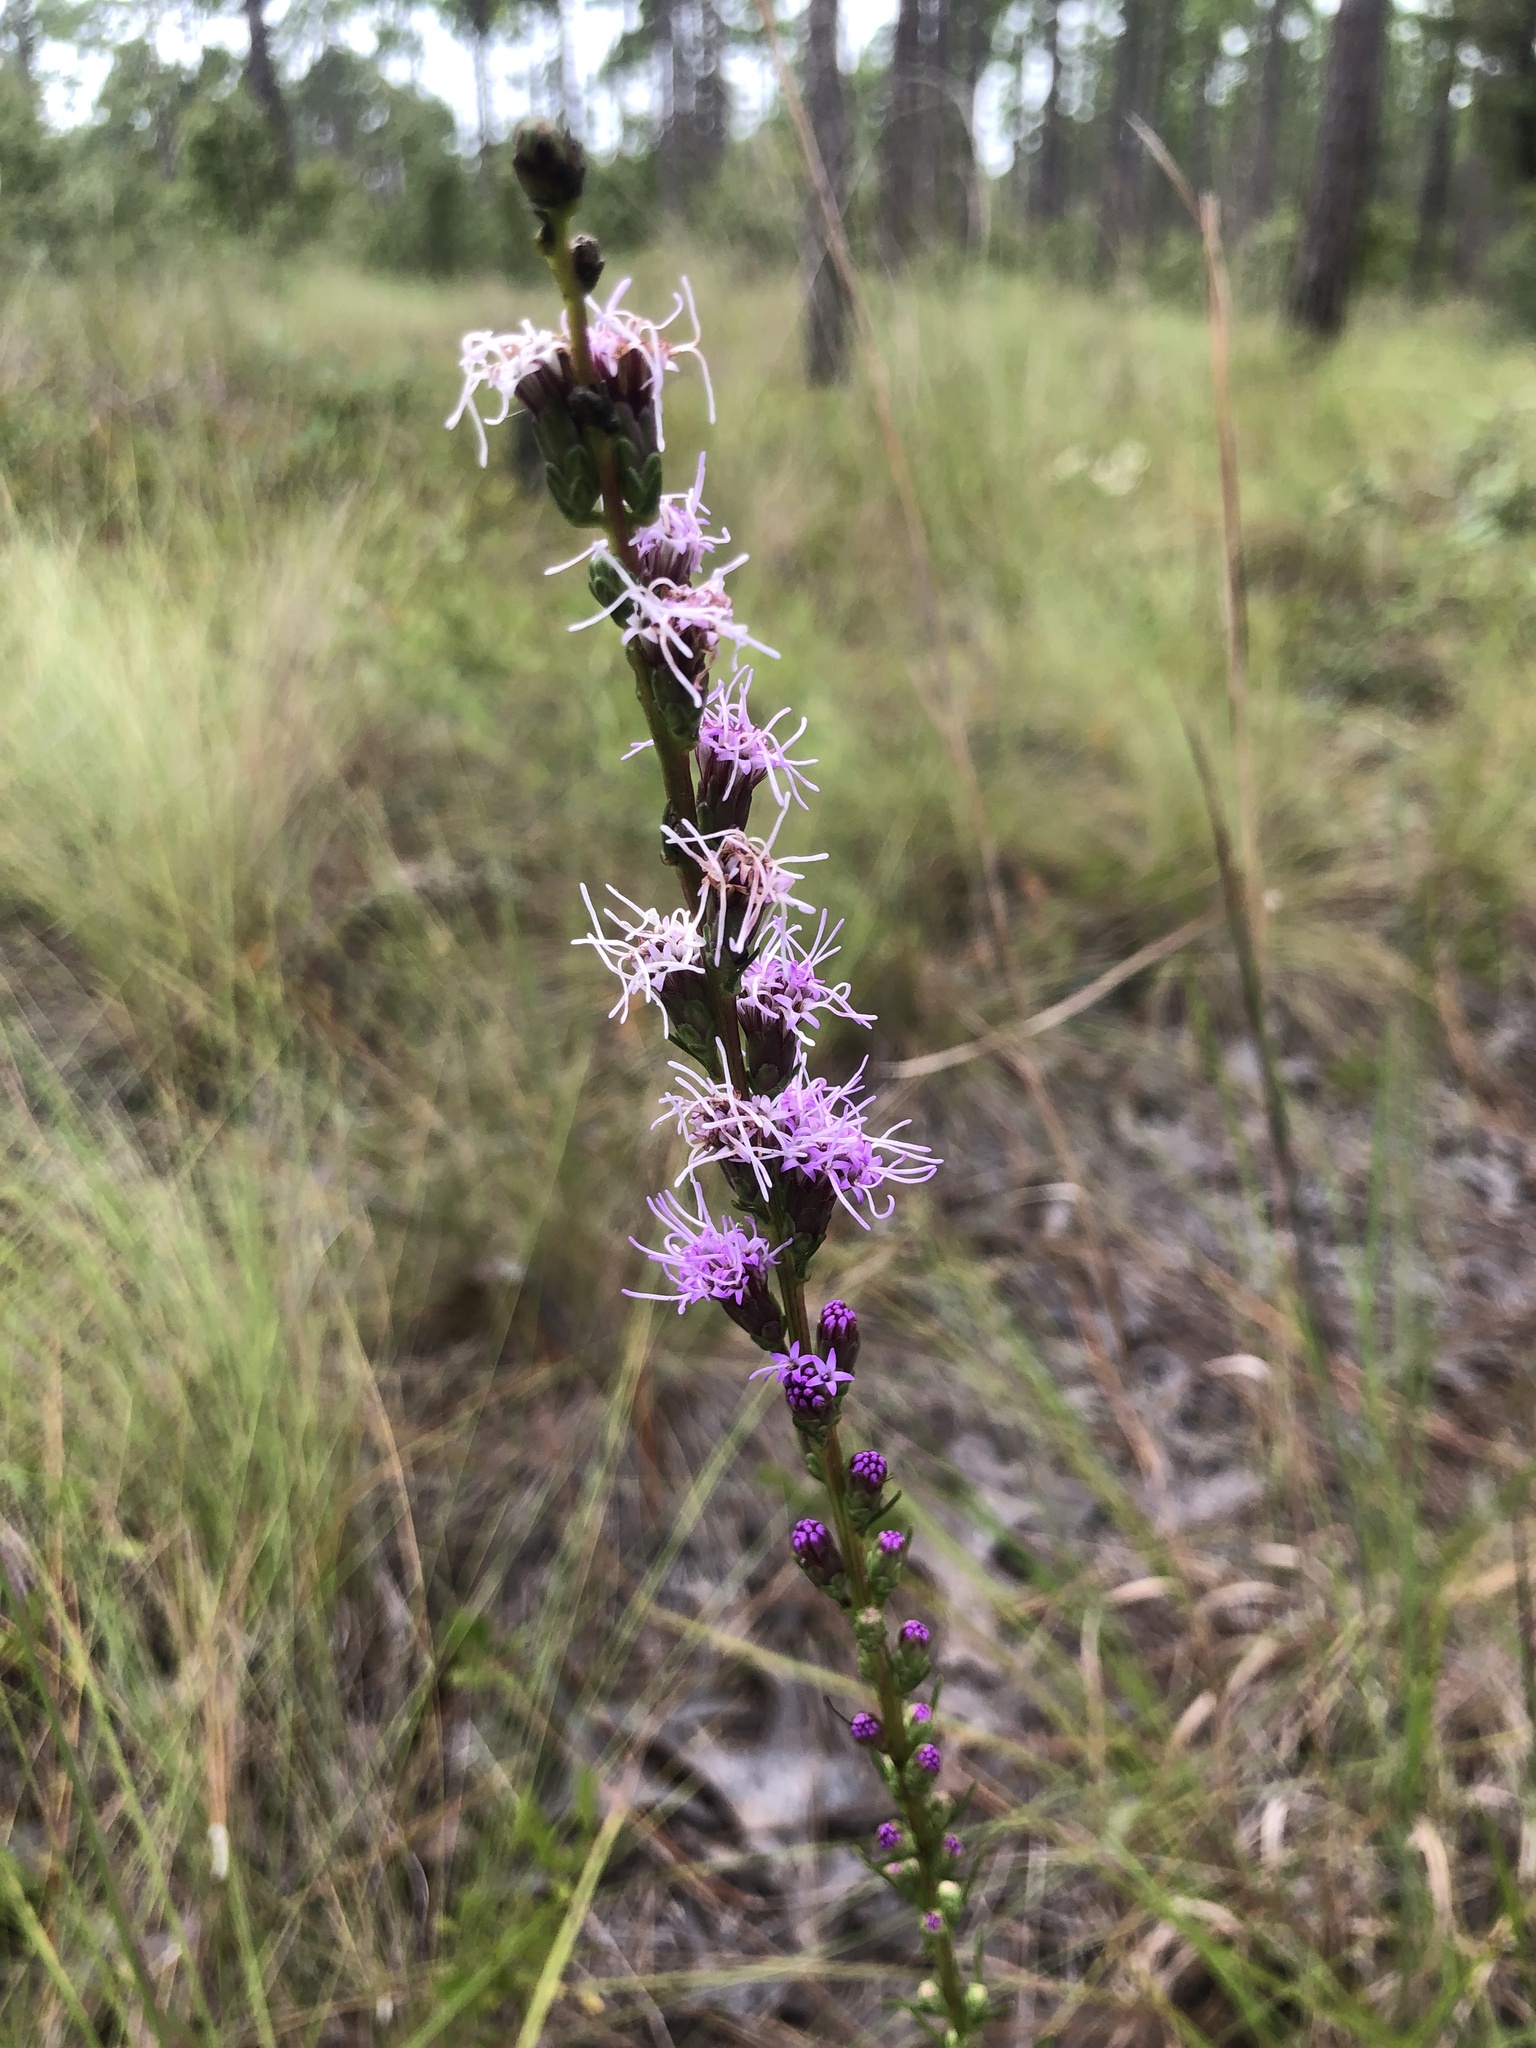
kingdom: Plantae
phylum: Tracheophyta
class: Magnoliopsida
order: Asterales
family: Asteraceae
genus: Liatris
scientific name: Liatris pilosa
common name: Grass-leaf gayfeather
